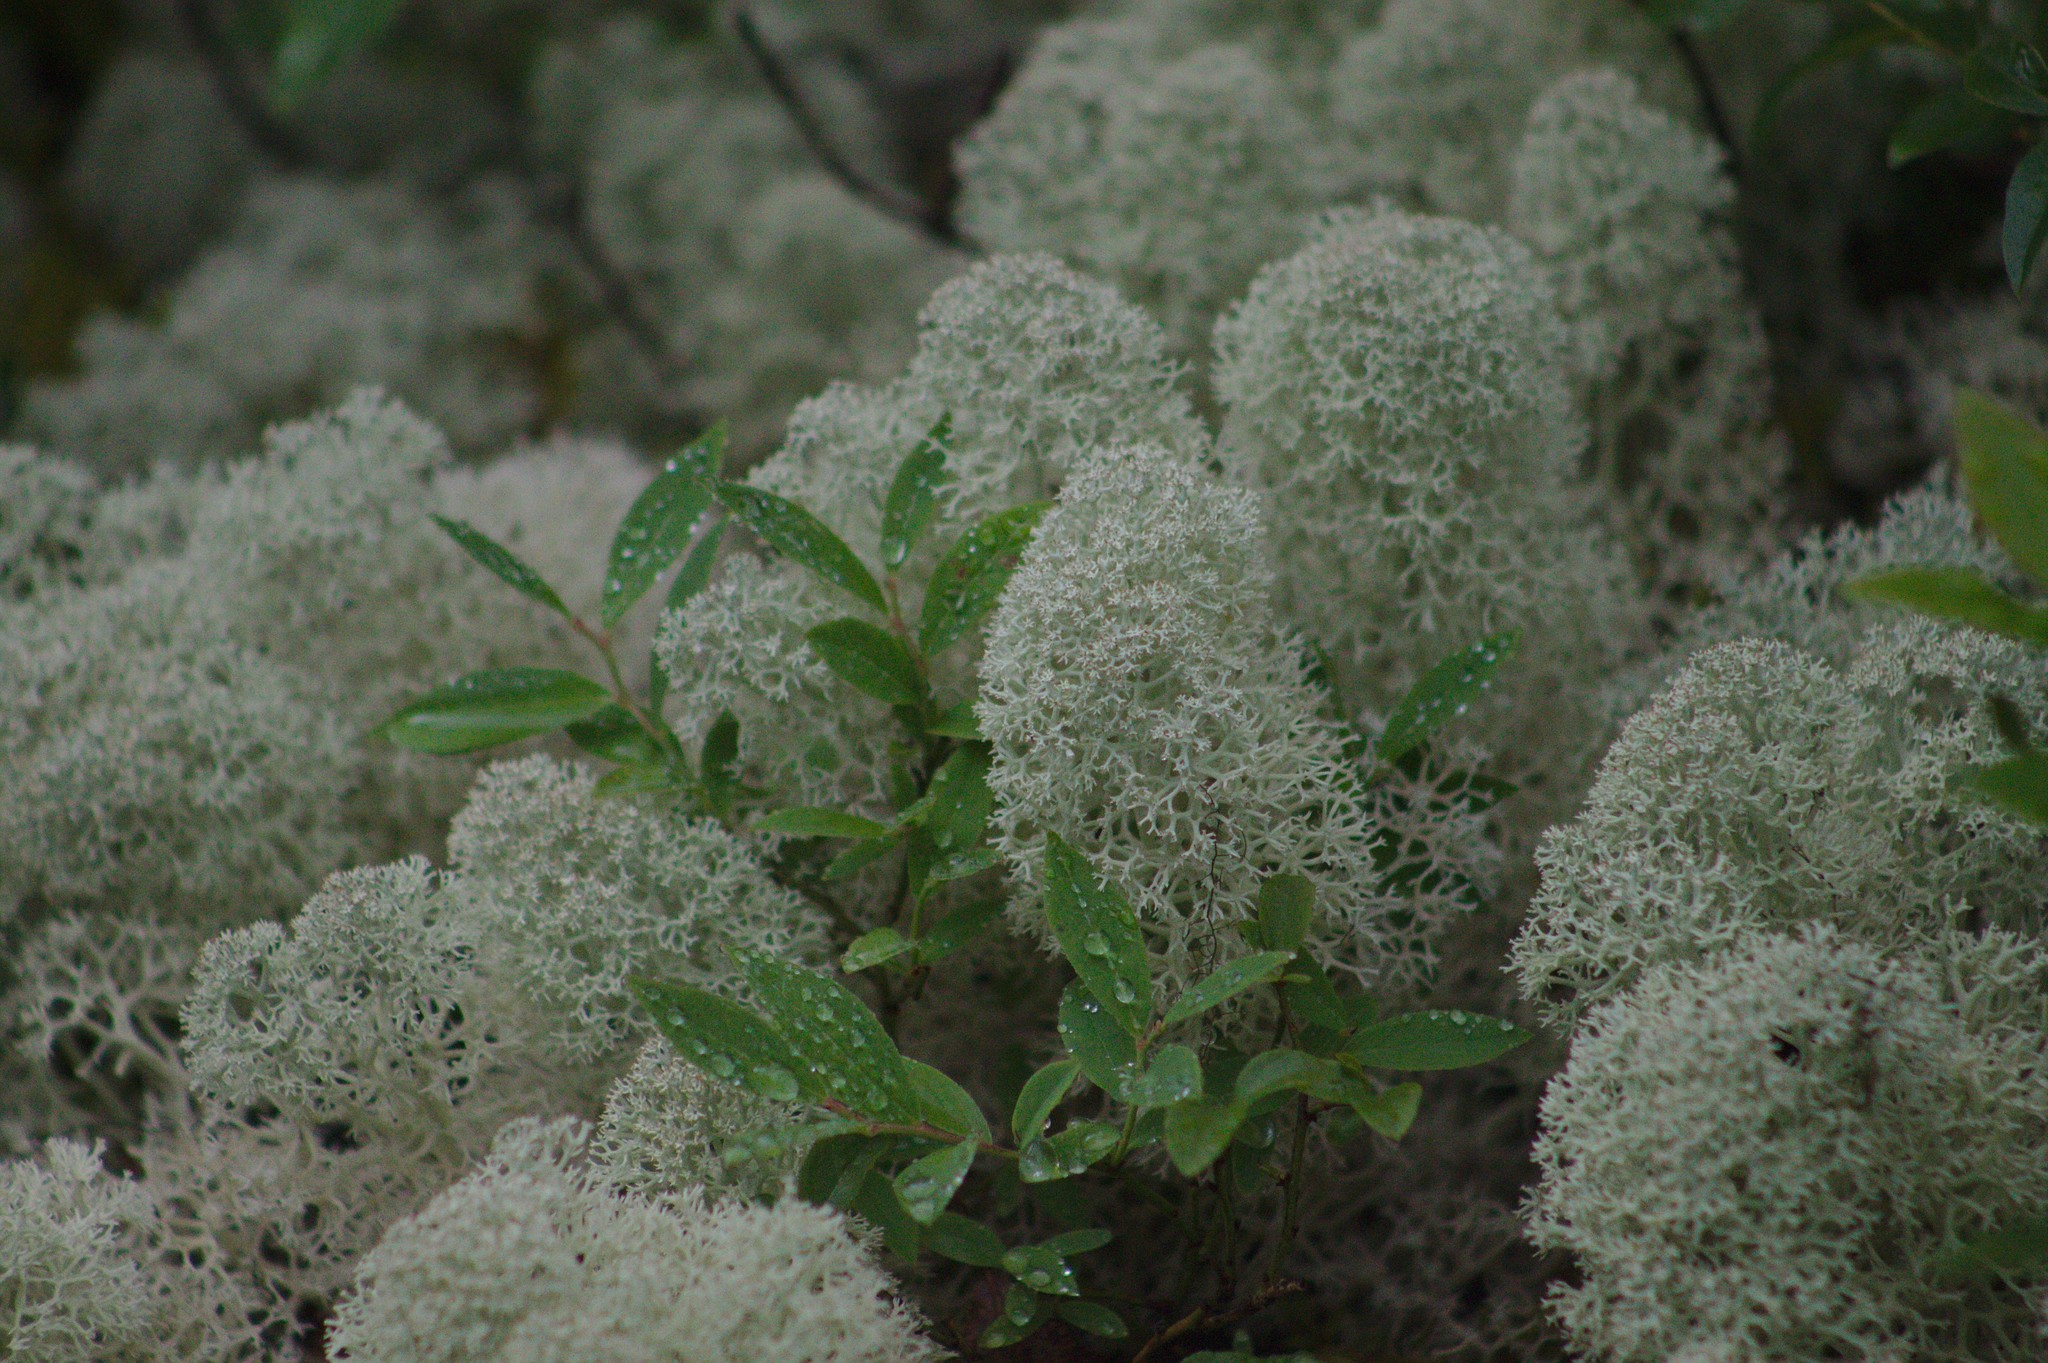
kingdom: Fungi
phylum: Ascomycota
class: Lecanoromycetes
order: Lecanorales
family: Cladoniaceae
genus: Cladonia
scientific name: Cladonia stellaris
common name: Star-tipped reindeer lichen
